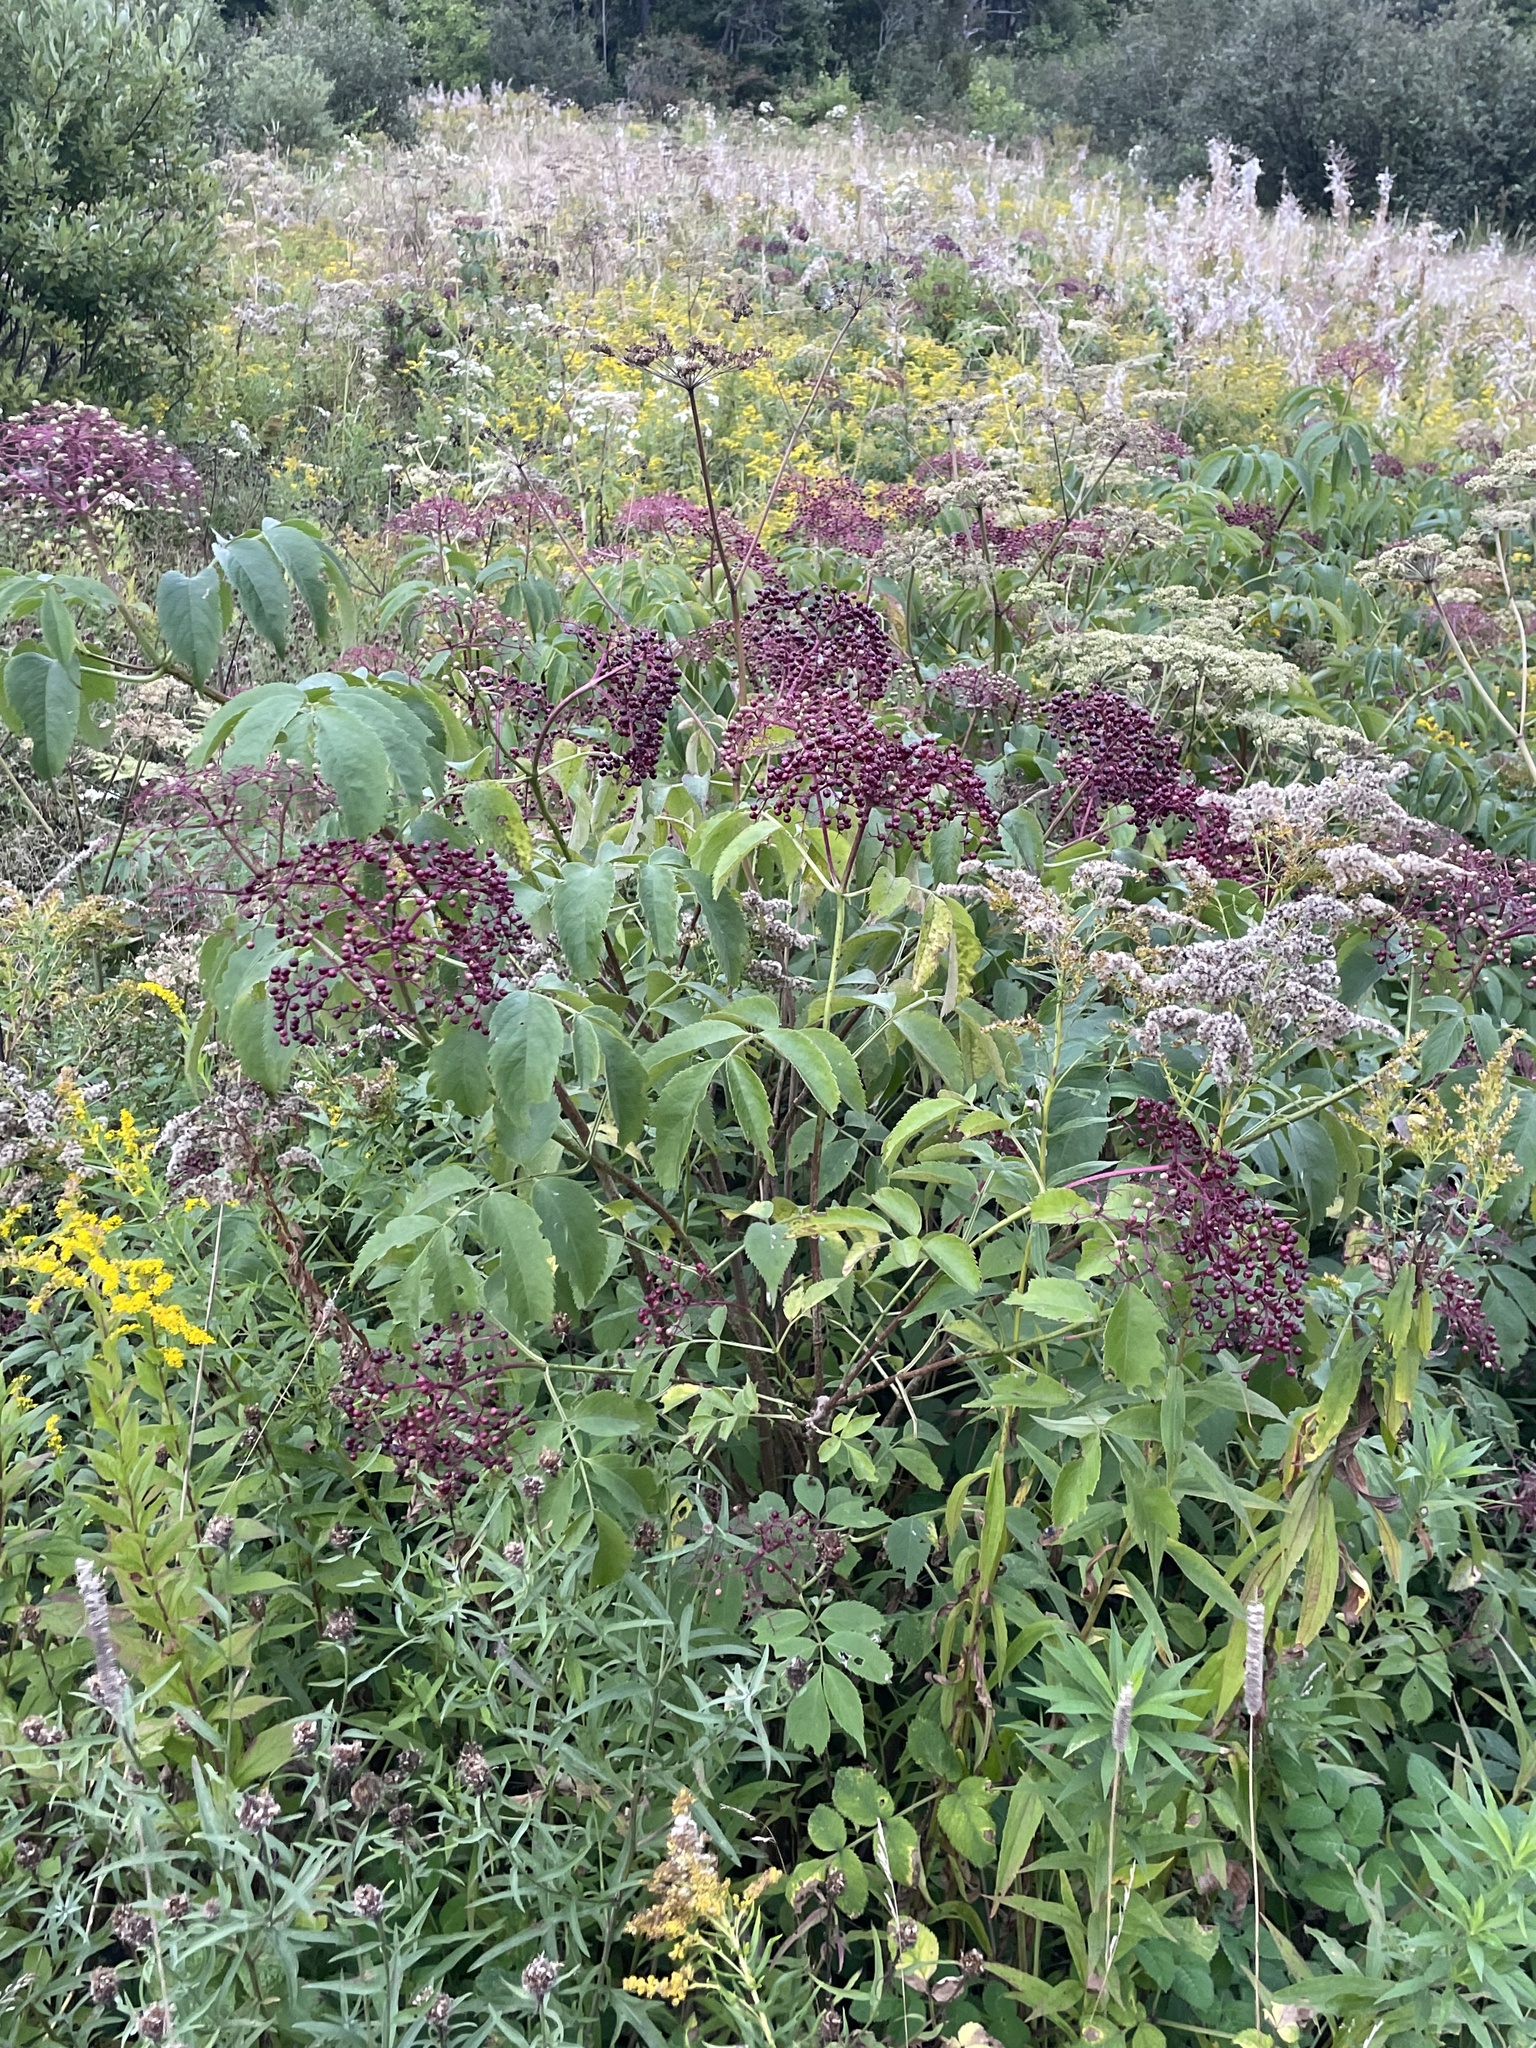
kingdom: Plantae
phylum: Tracheophyta
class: Magnoliopsida
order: Dipsacales
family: Viburnaceae
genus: Sambucus
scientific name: Sambucus canadensis
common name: American elder
